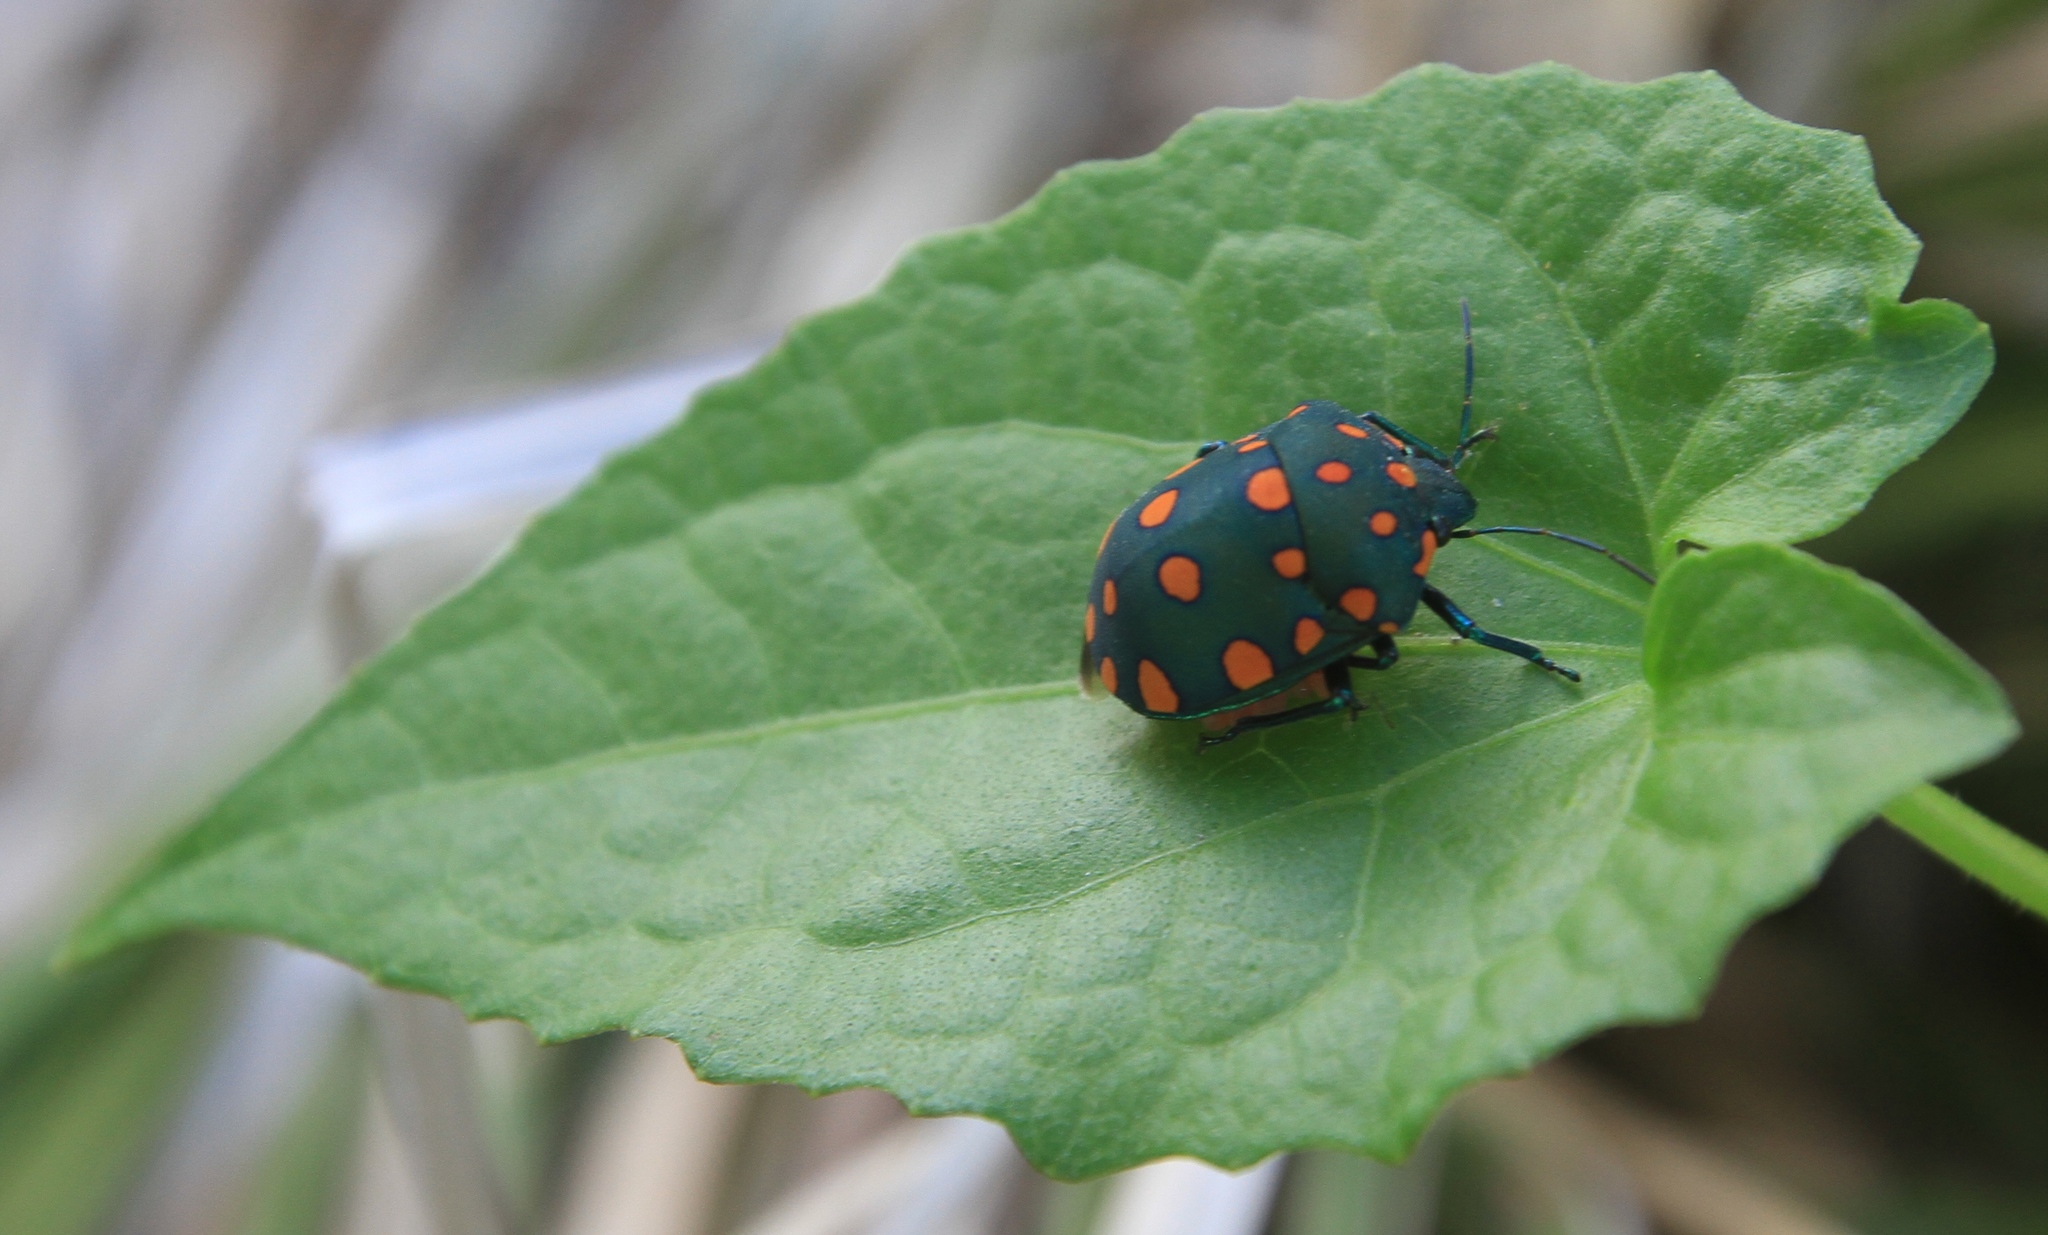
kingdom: Animalia
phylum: Arthropoda
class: Insecta
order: Hemiptera
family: Scutelleridae
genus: Pachycoris
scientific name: Pachycoris fabricii
